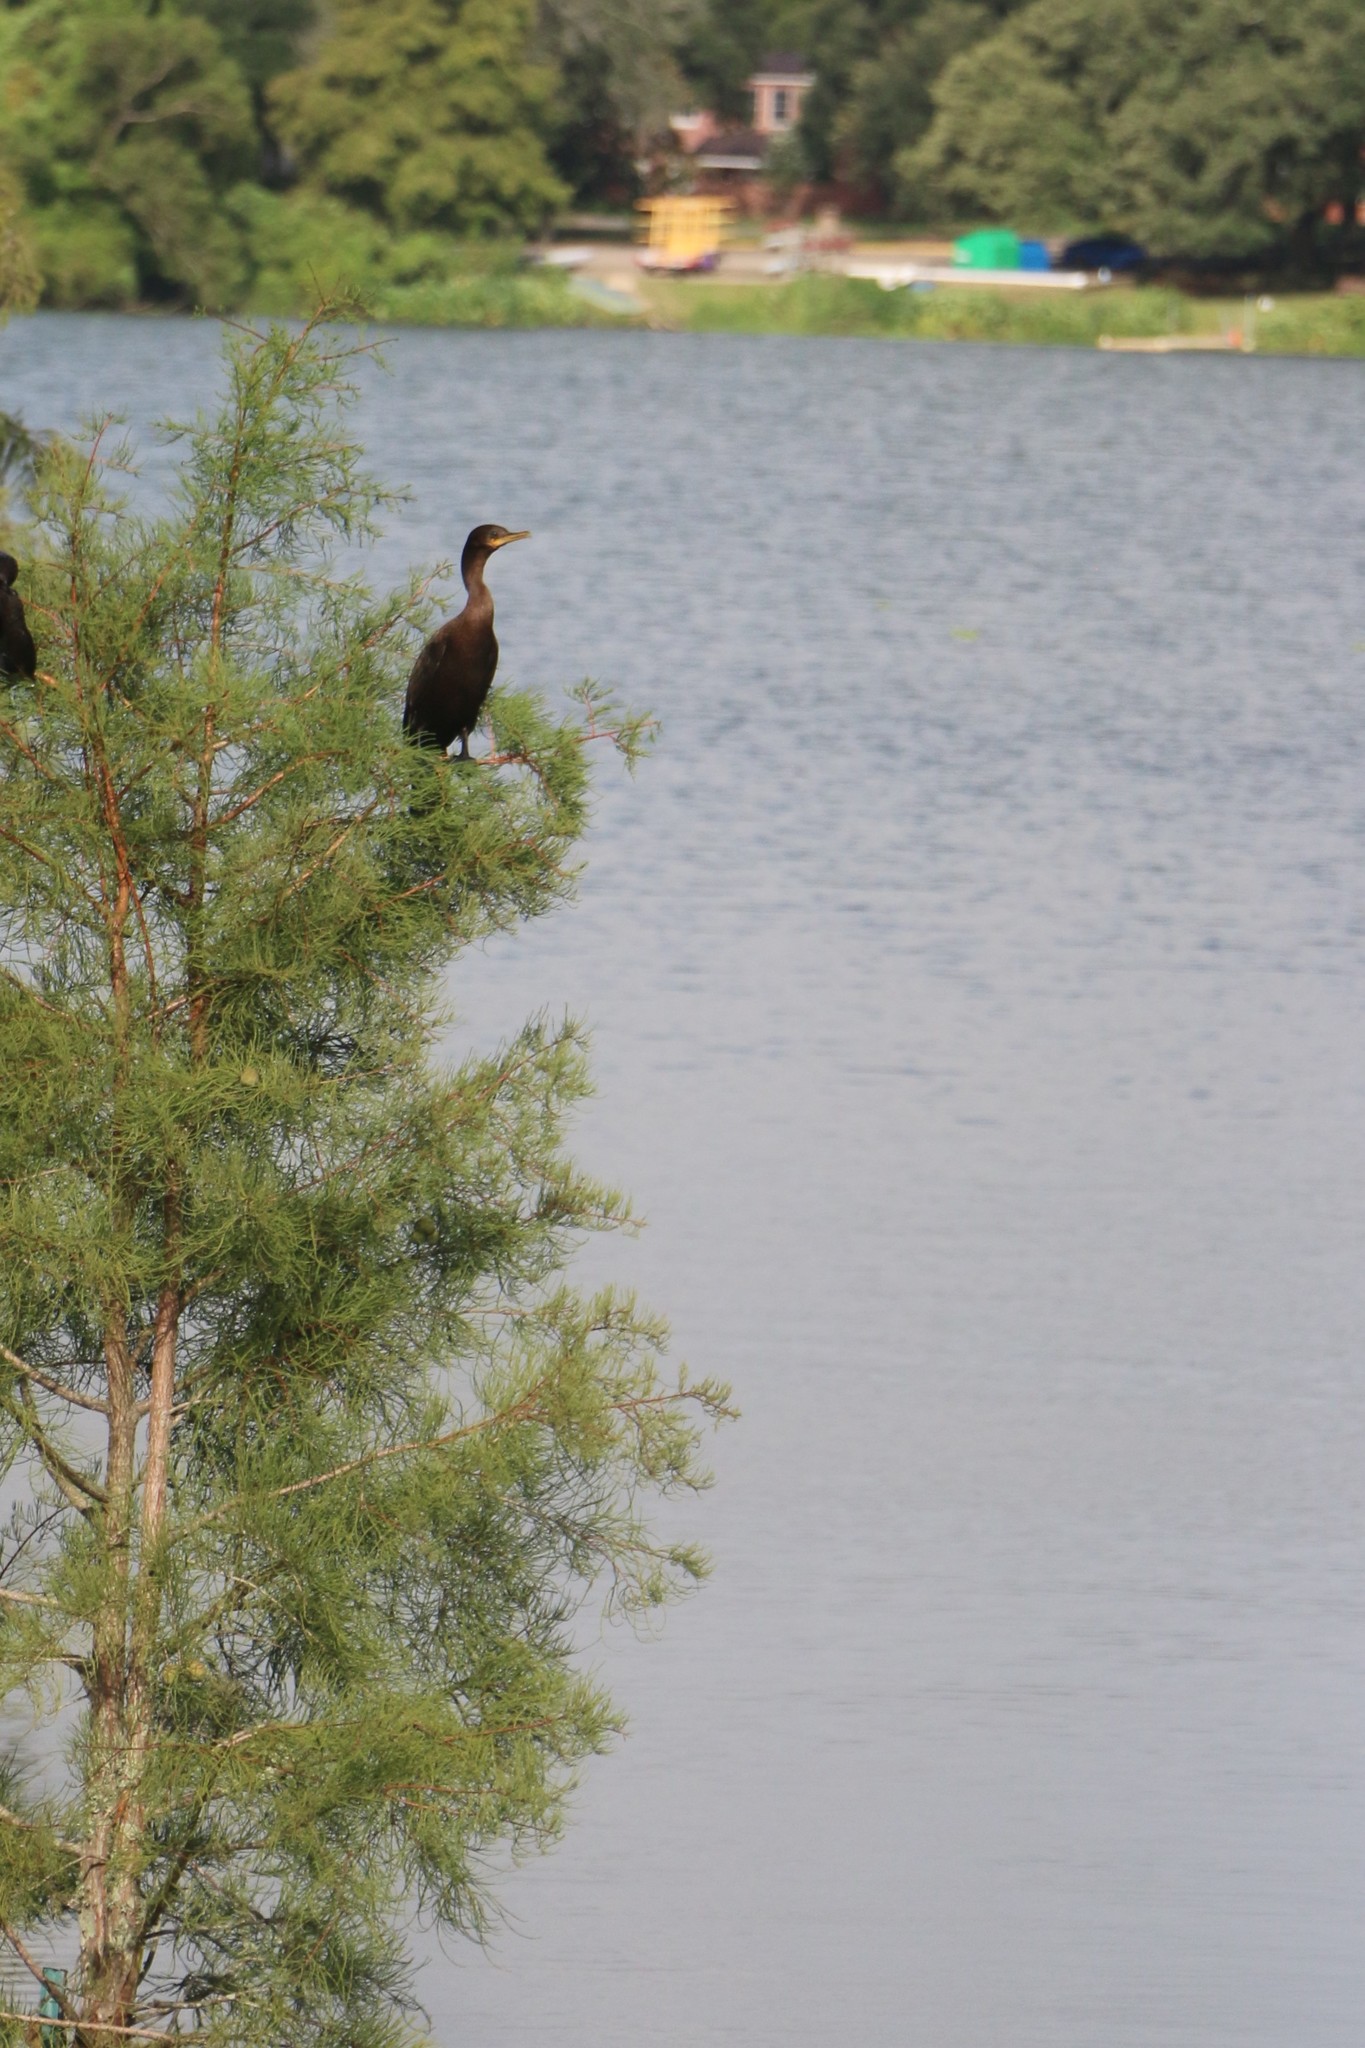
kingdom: Animalia
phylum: Chordata
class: Aves
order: Suliformes
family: Phalacrocoracidae
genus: Phalacrocorax
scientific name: Phalacrocorax brasilianus
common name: Neotropic cormorant
